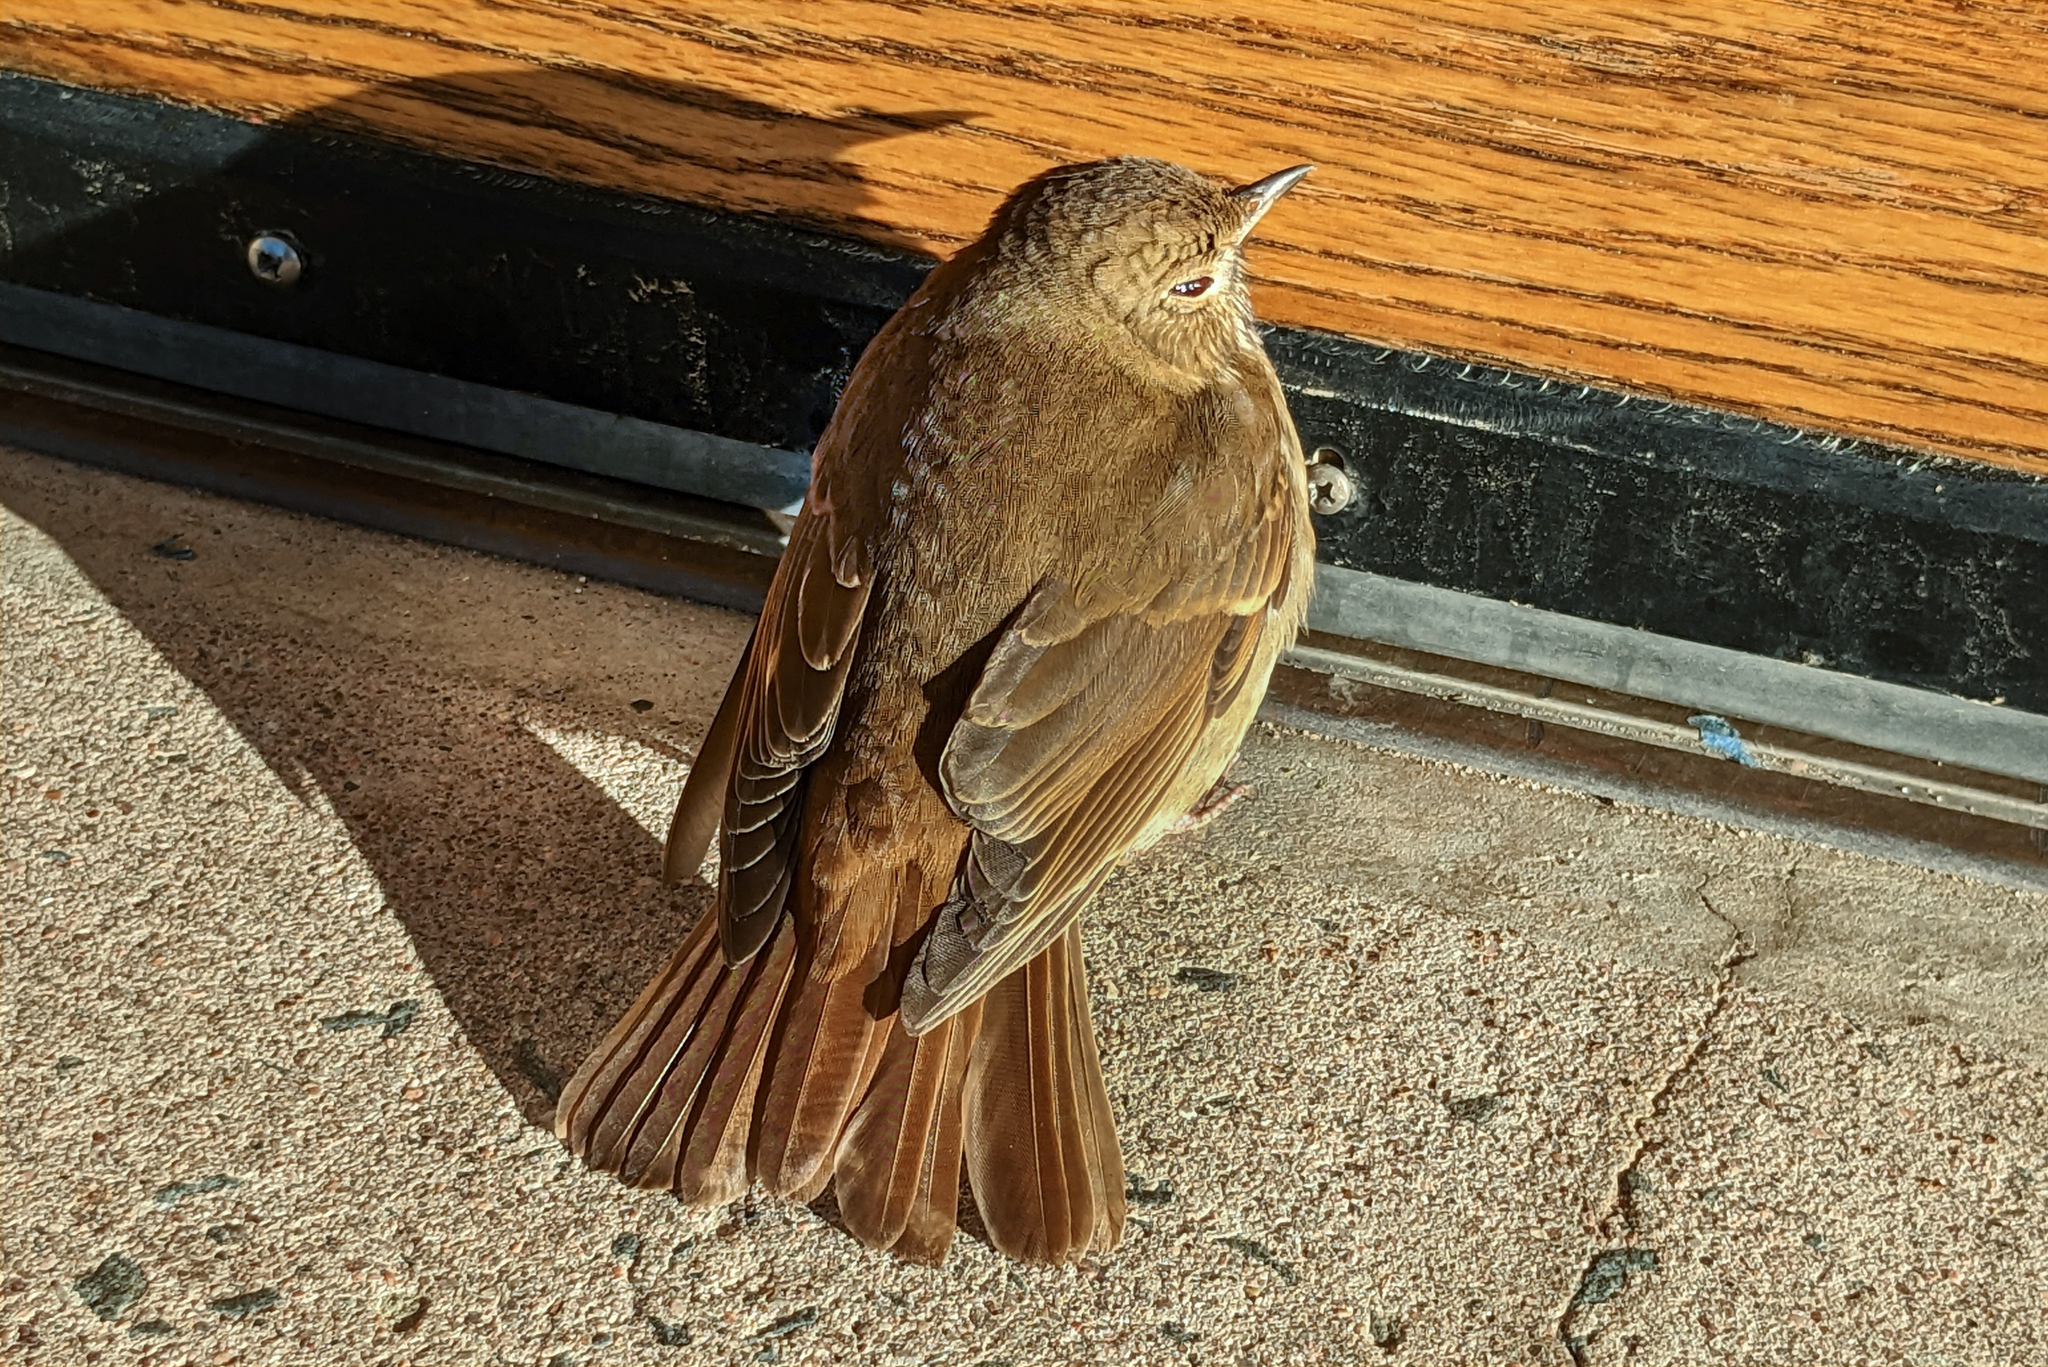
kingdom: Animalia
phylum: Chordata
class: Aves
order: Passeriformes
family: Turdidae
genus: Catharus
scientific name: Catharus guttatus
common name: Hermit thrush
